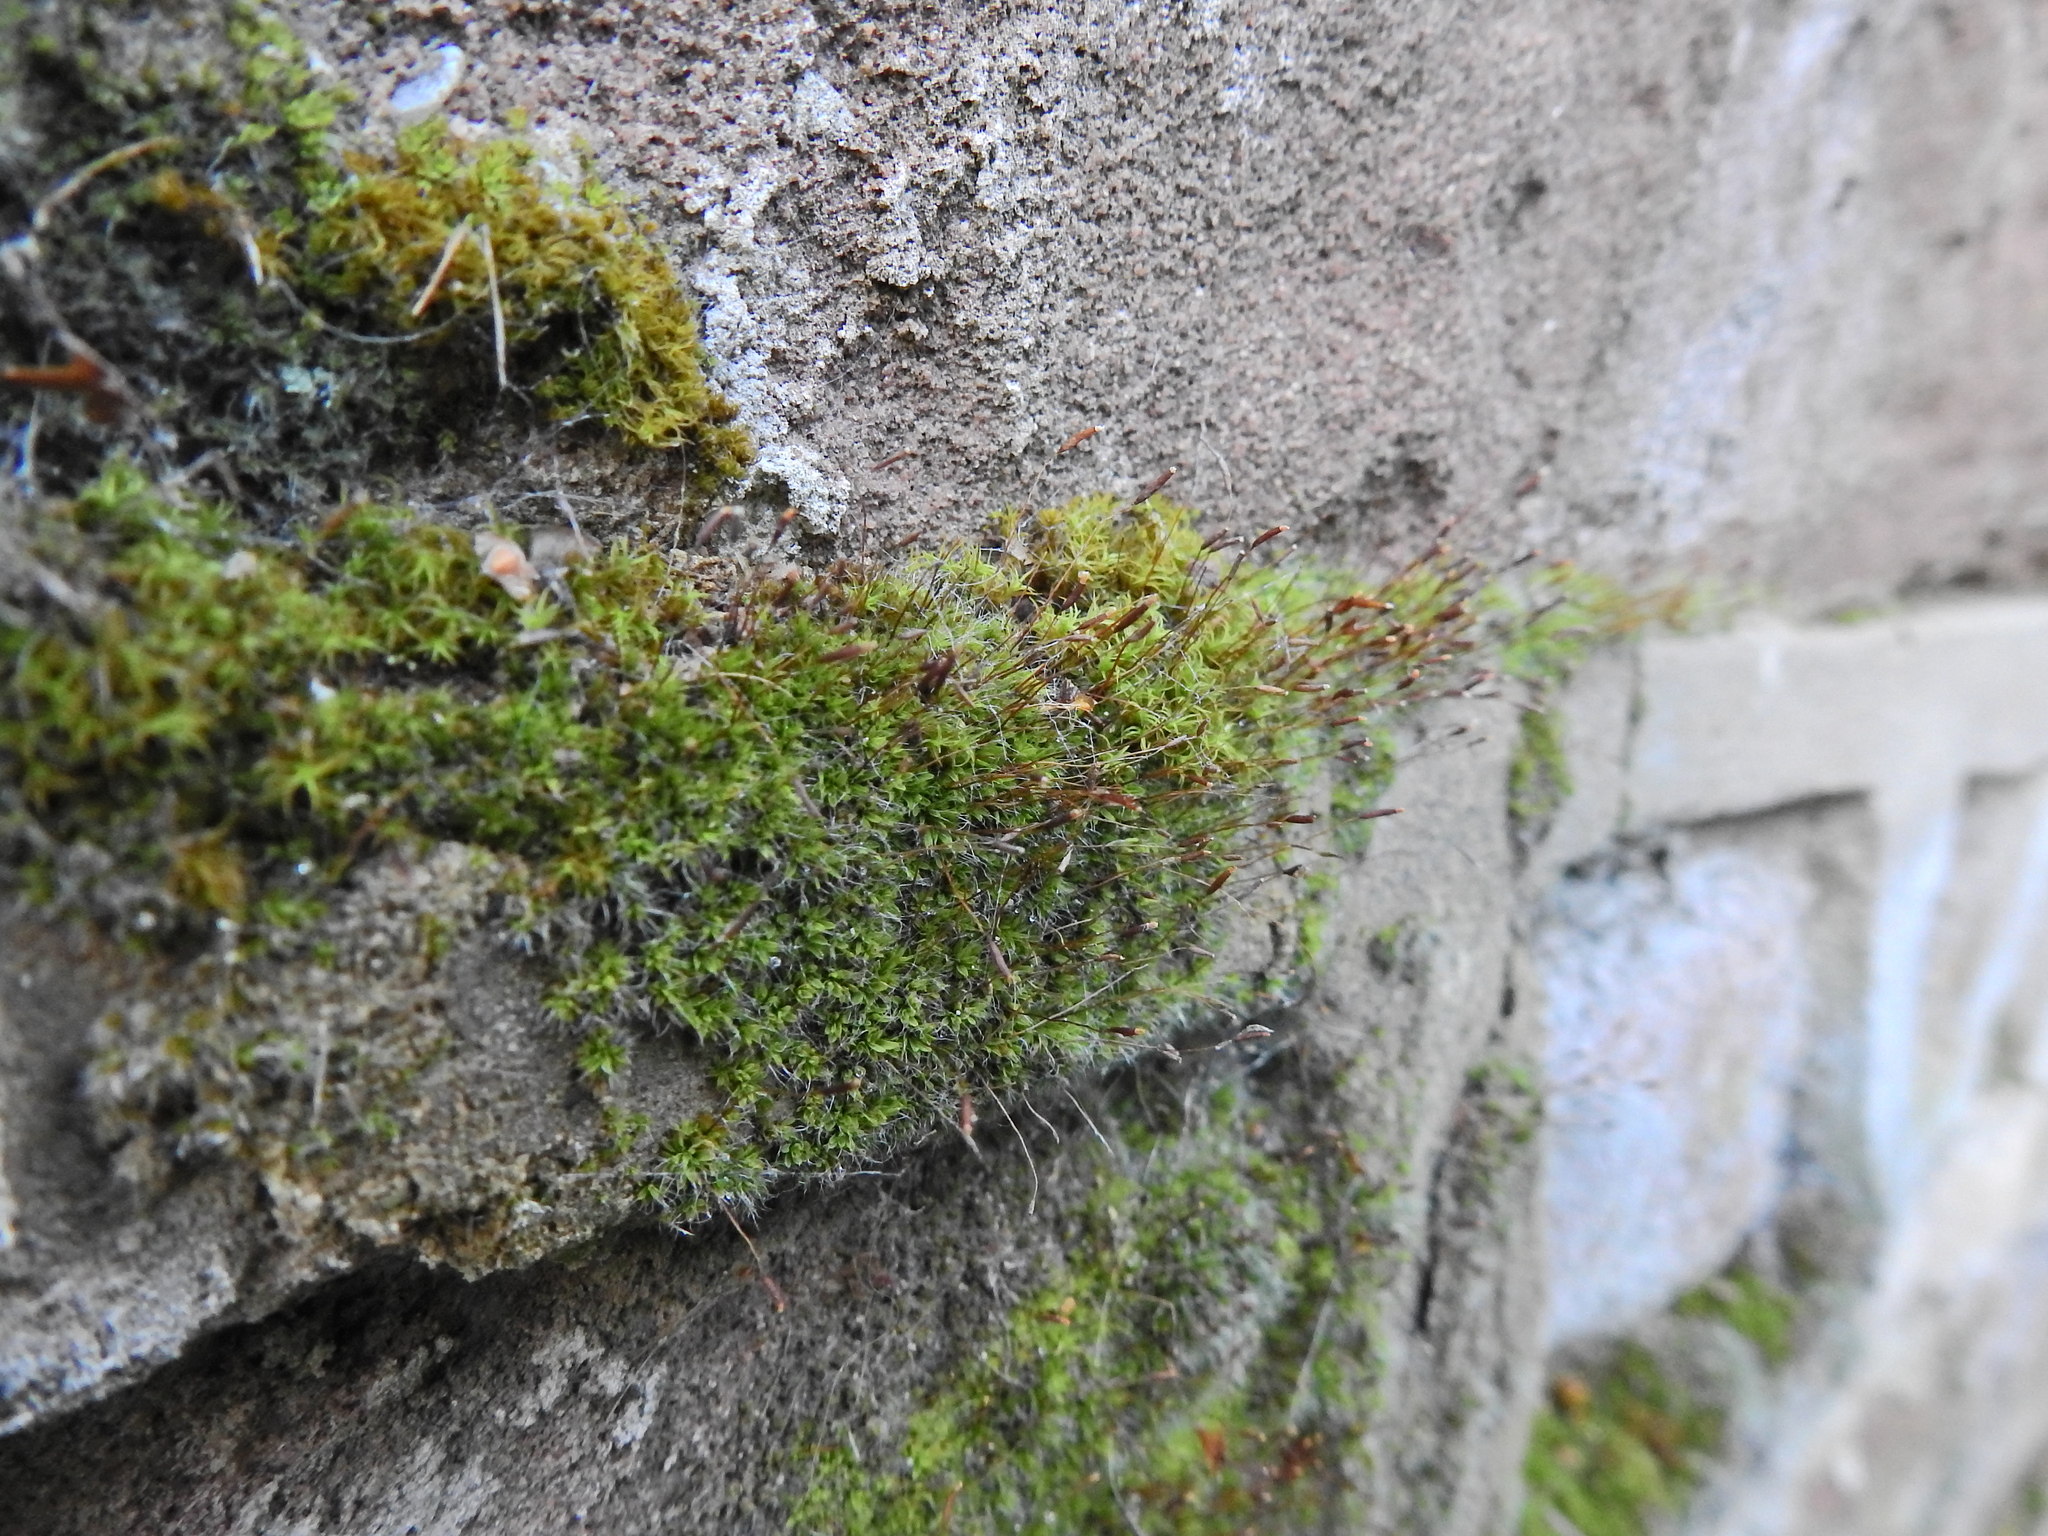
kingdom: Plantae
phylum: Bryophyta
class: Bryopsida
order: Pottiales
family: Pottiaceae
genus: Tortula
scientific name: Tortula muralis
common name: Wall screw-moss
